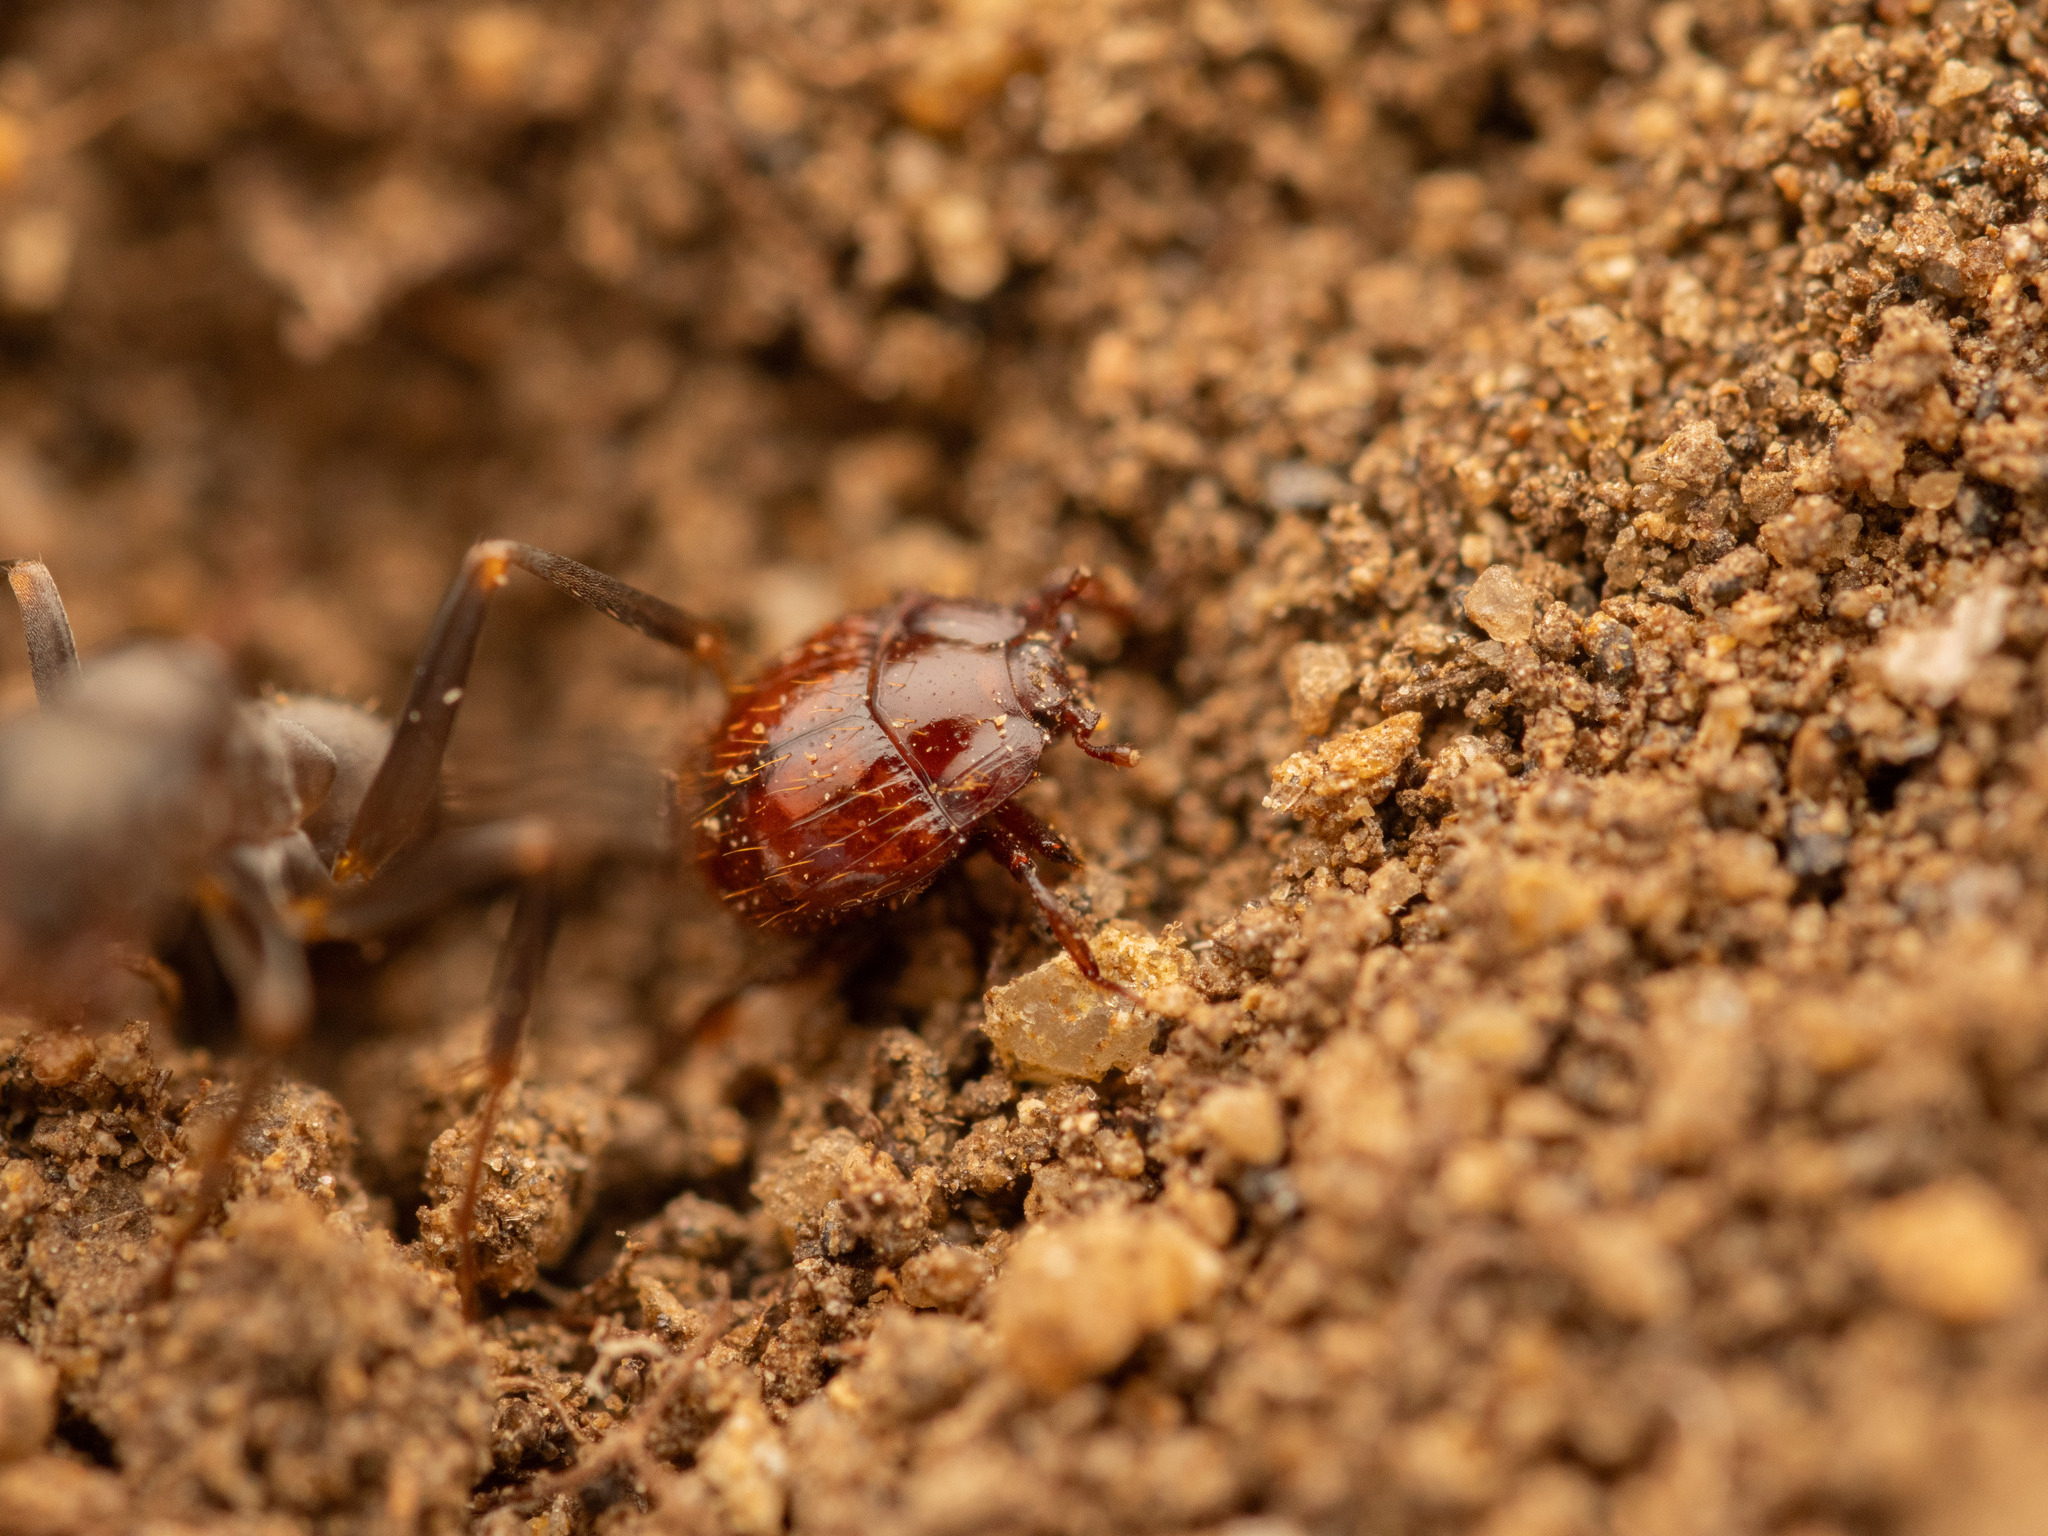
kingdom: Animalia
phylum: Arthropoda
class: Insecta
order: Coleoptera
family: Histeridae
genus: Haeterius
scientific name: Haeterius ferrugineus
